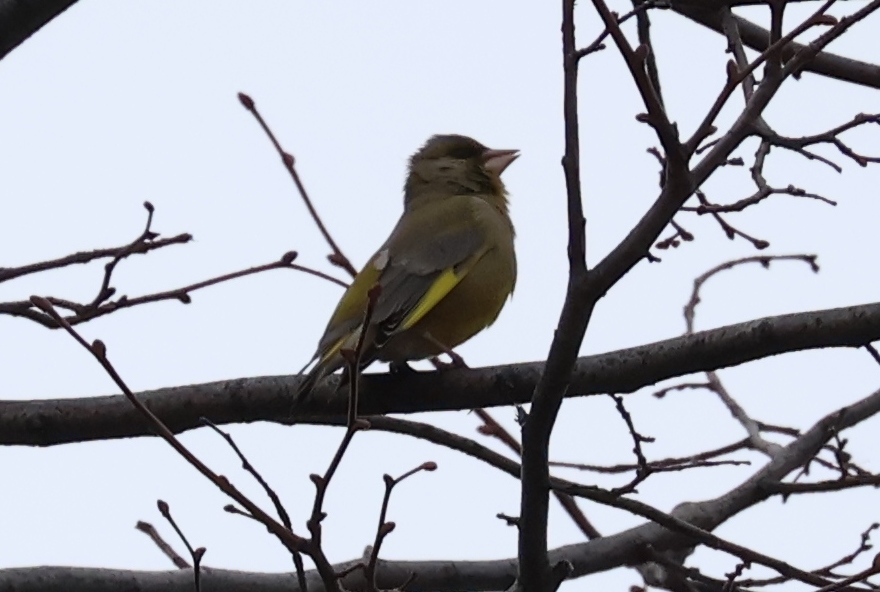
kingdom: Plantae
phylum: Tracheophyta
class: Liliopsida
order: Poales
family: Poaceae
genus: Chloris
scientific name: Chloris chloris
